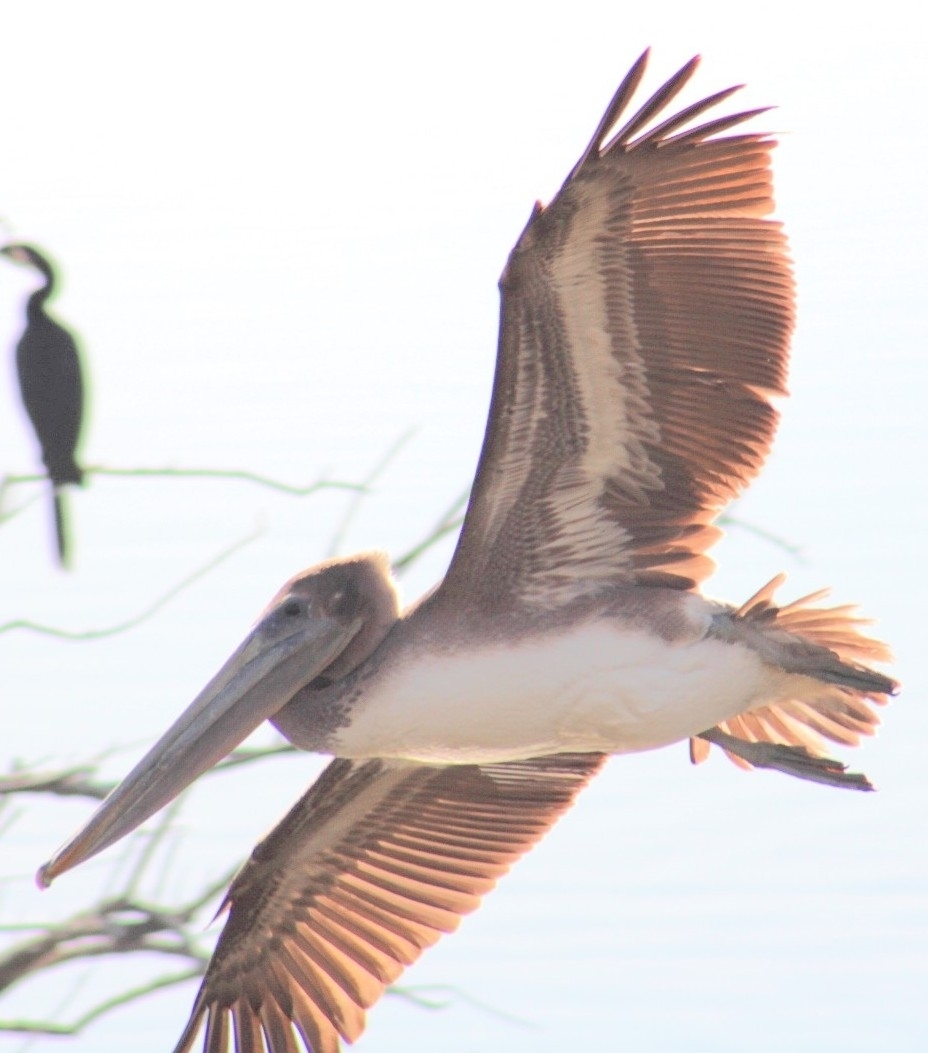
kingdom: Animalia
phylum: Chordata
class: Aves
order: Pelecaniformes
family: Pelecanidae
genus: Pelecanus
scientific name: Pelecanus occidentalis
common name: Brown pelican
